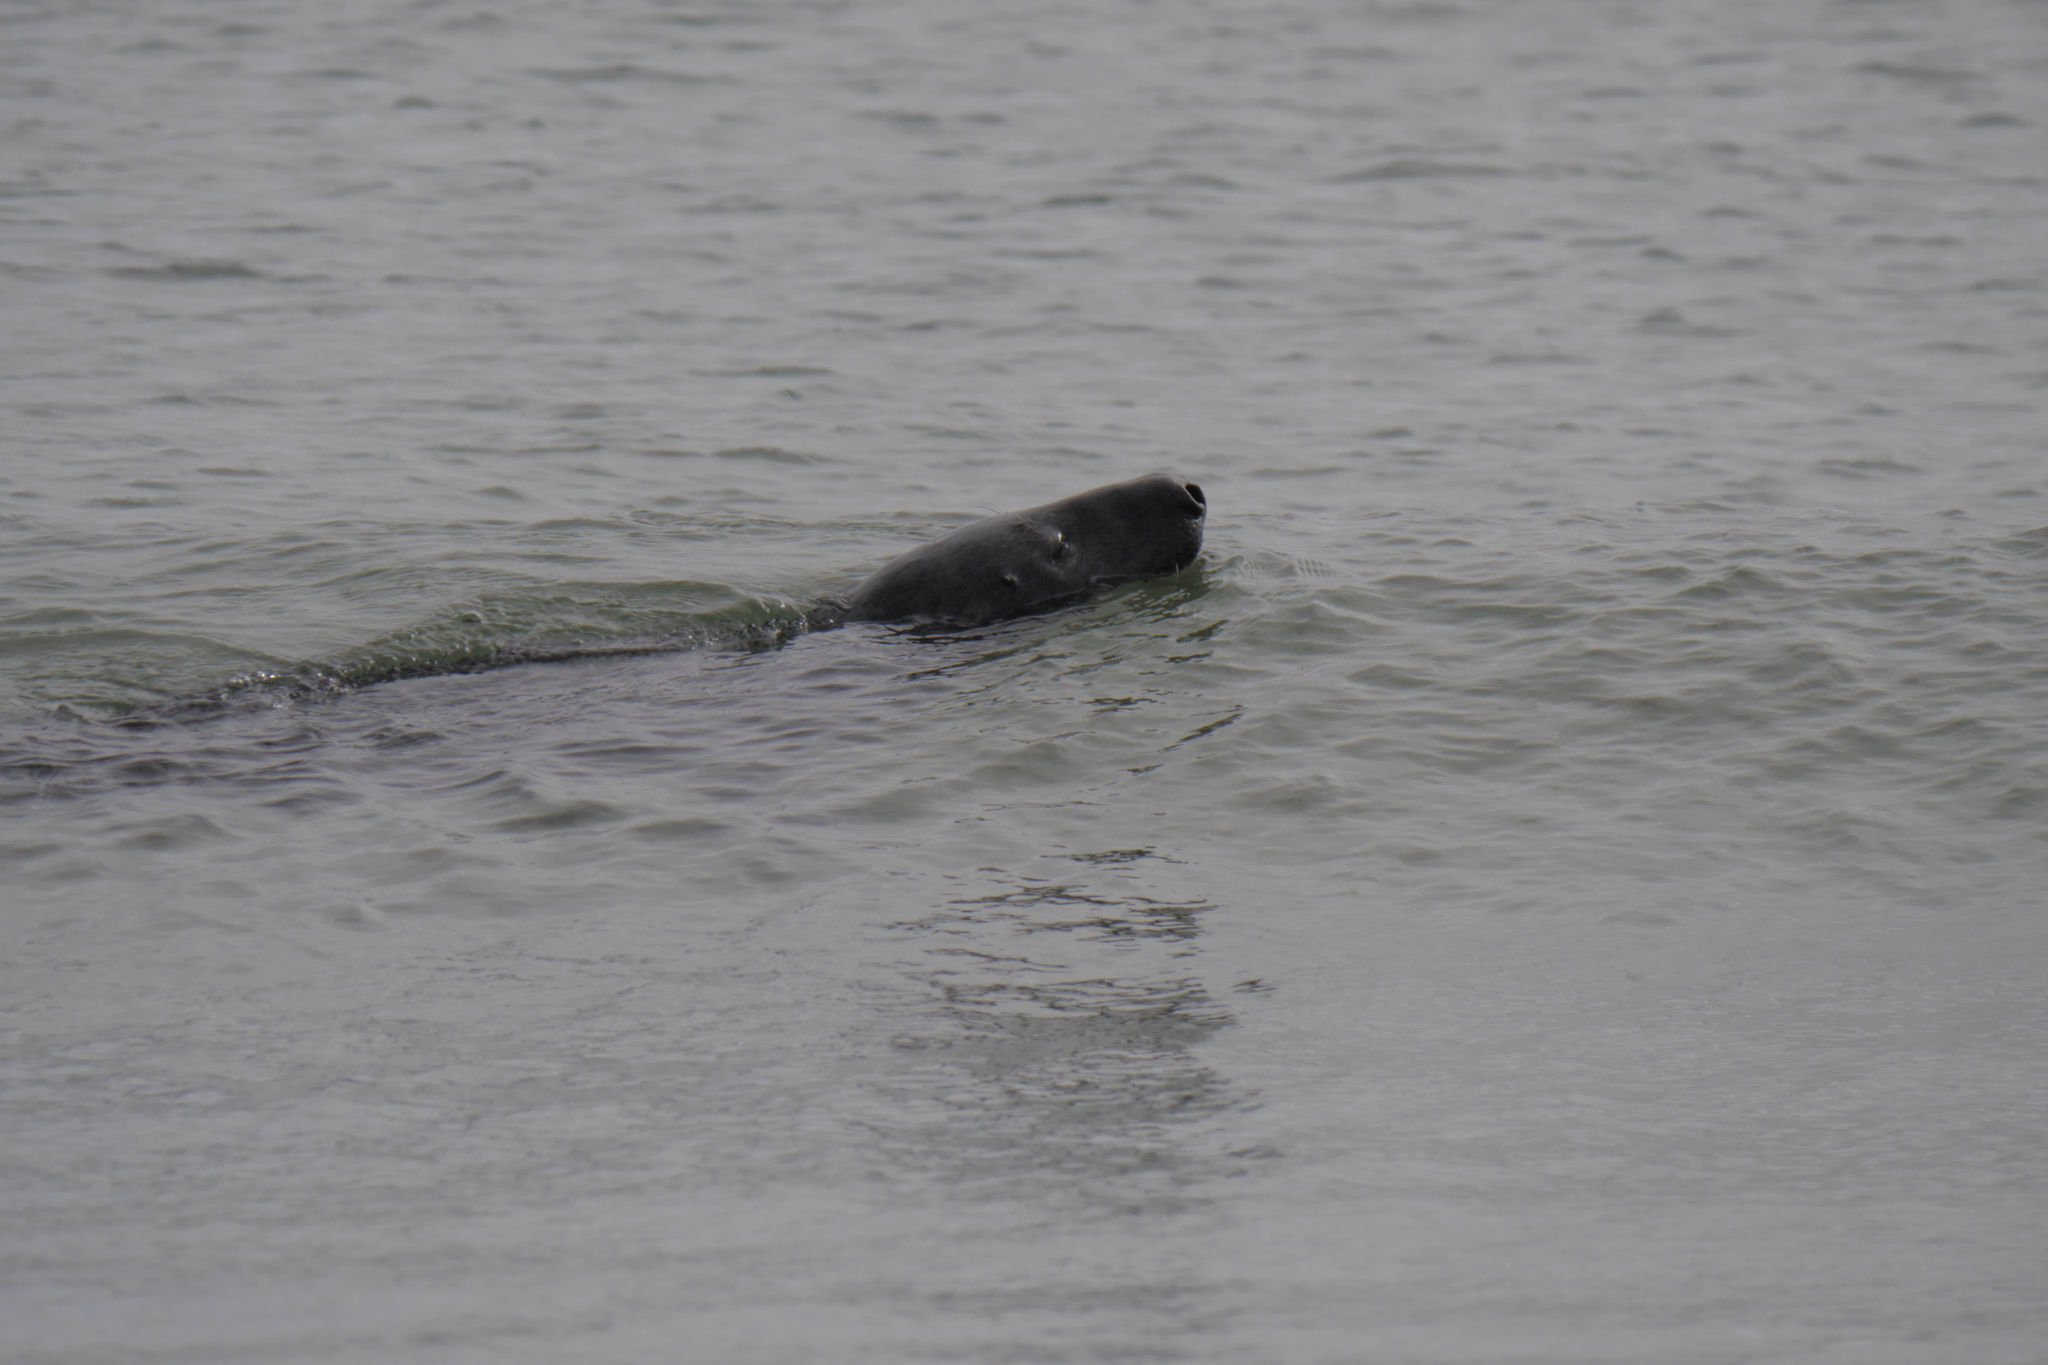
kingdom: Animalia
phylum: Chordata
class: Mammalia
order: Carnivora
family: Phocidae
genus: Halichoerus
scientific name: Halichoerus grypus
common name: Grey seal
